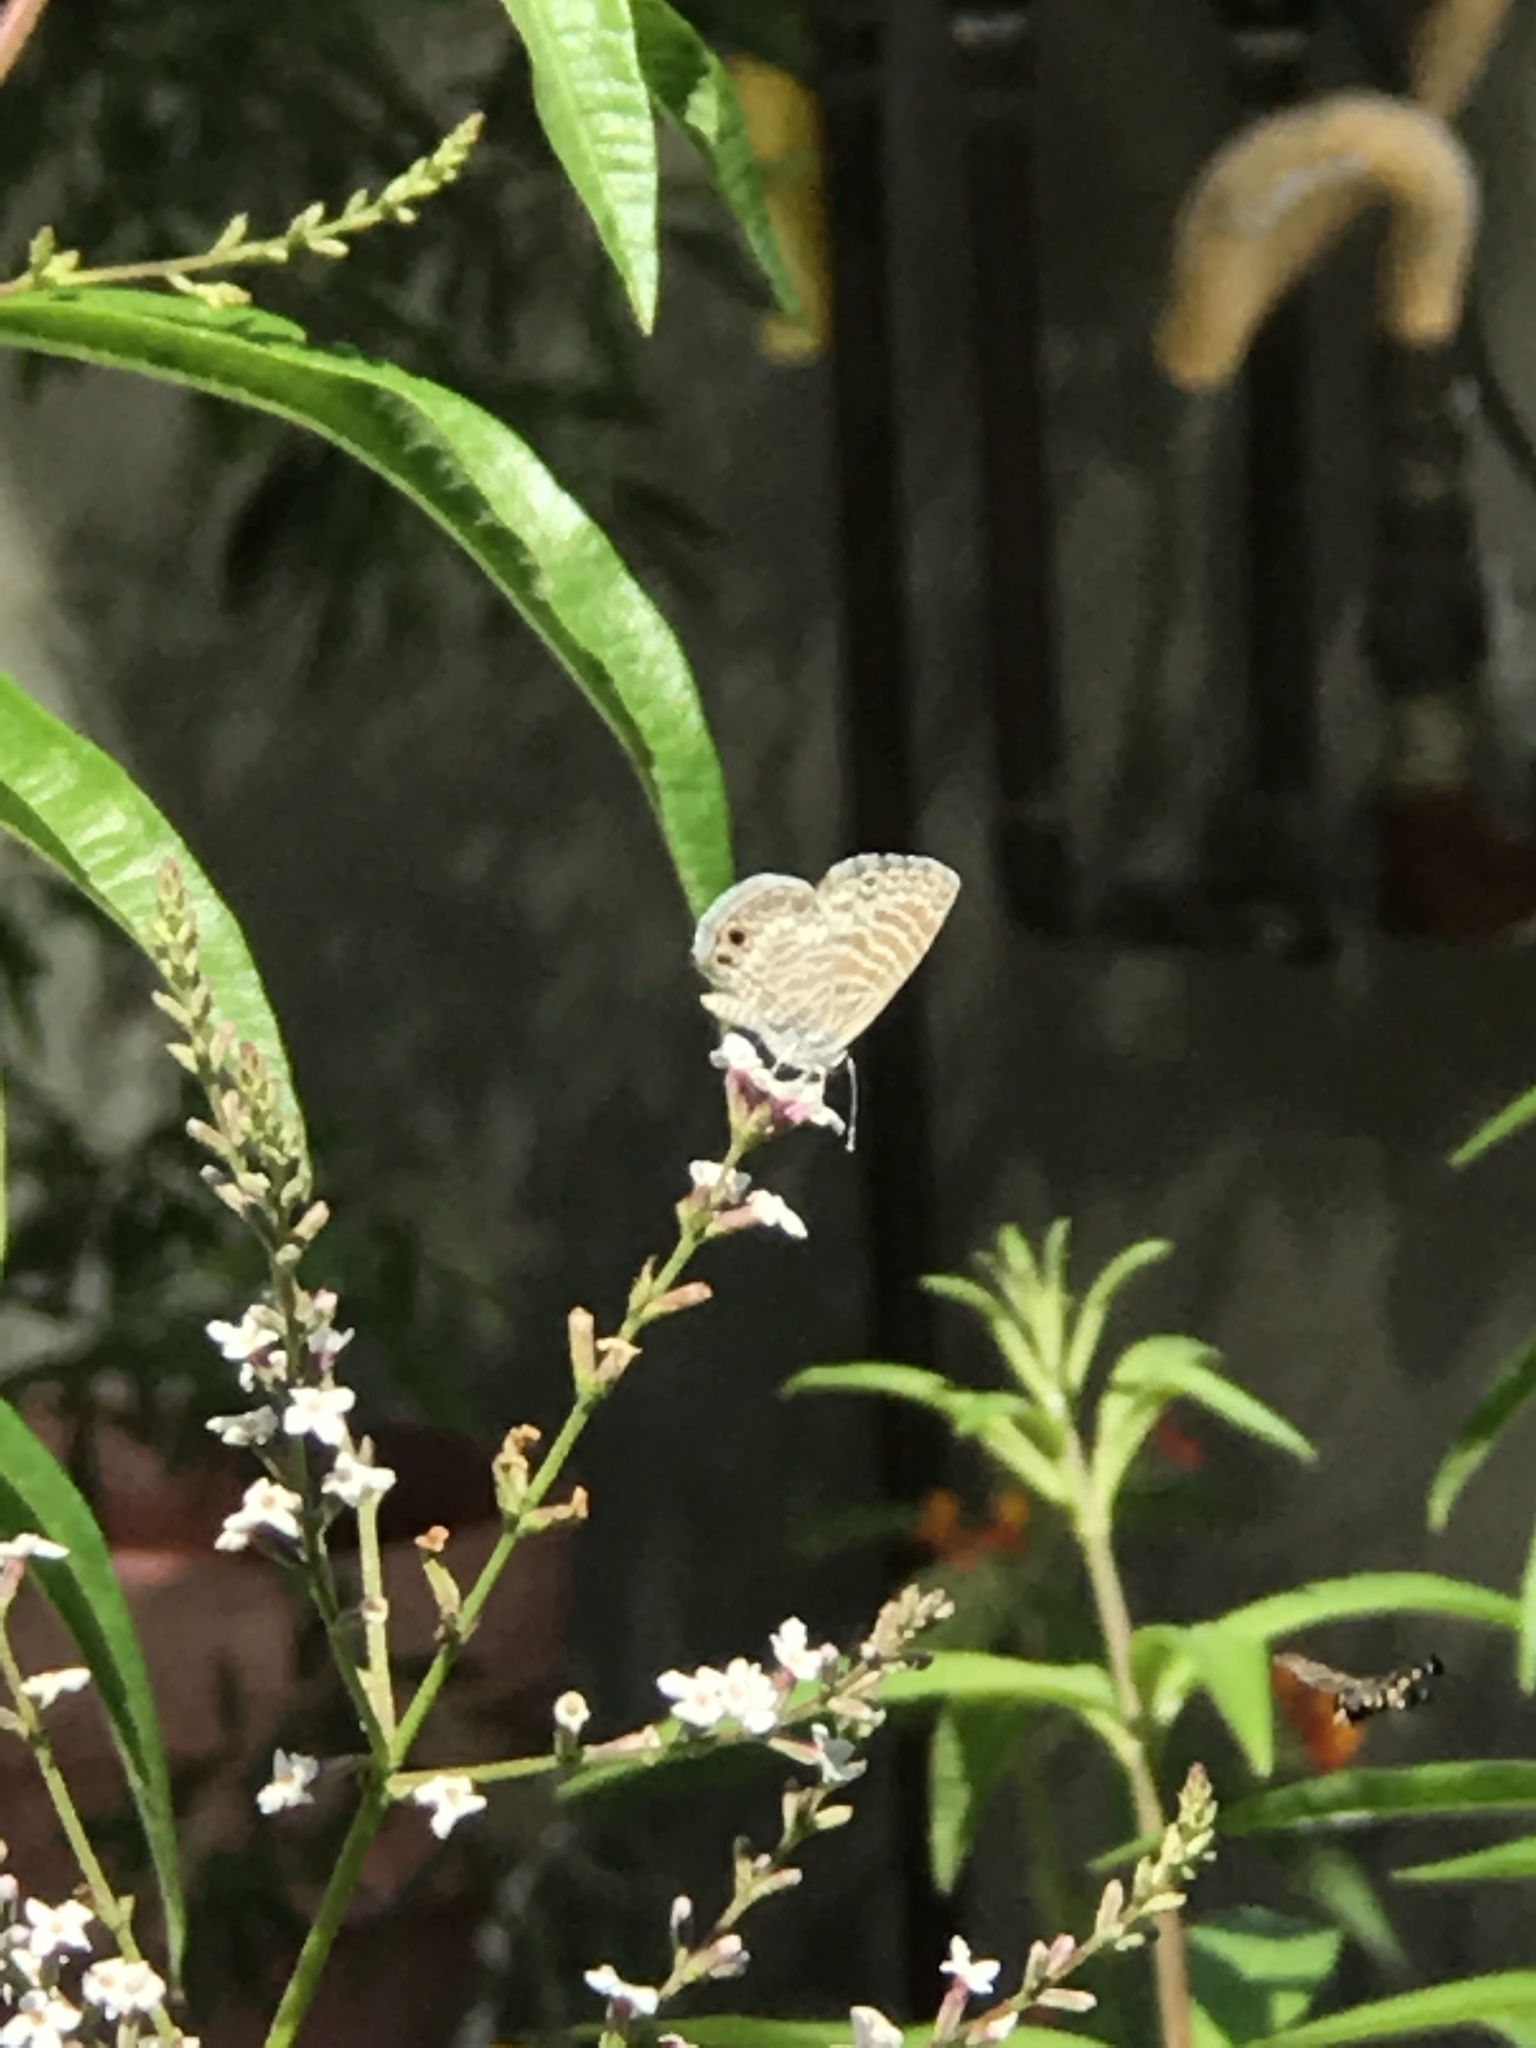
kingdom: Animalia
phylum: Arthropoda
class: Insecta
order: Lepidoptera
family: Lycaenidae
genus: Leptotes
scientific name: Leptotes marina
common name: Marine blue
